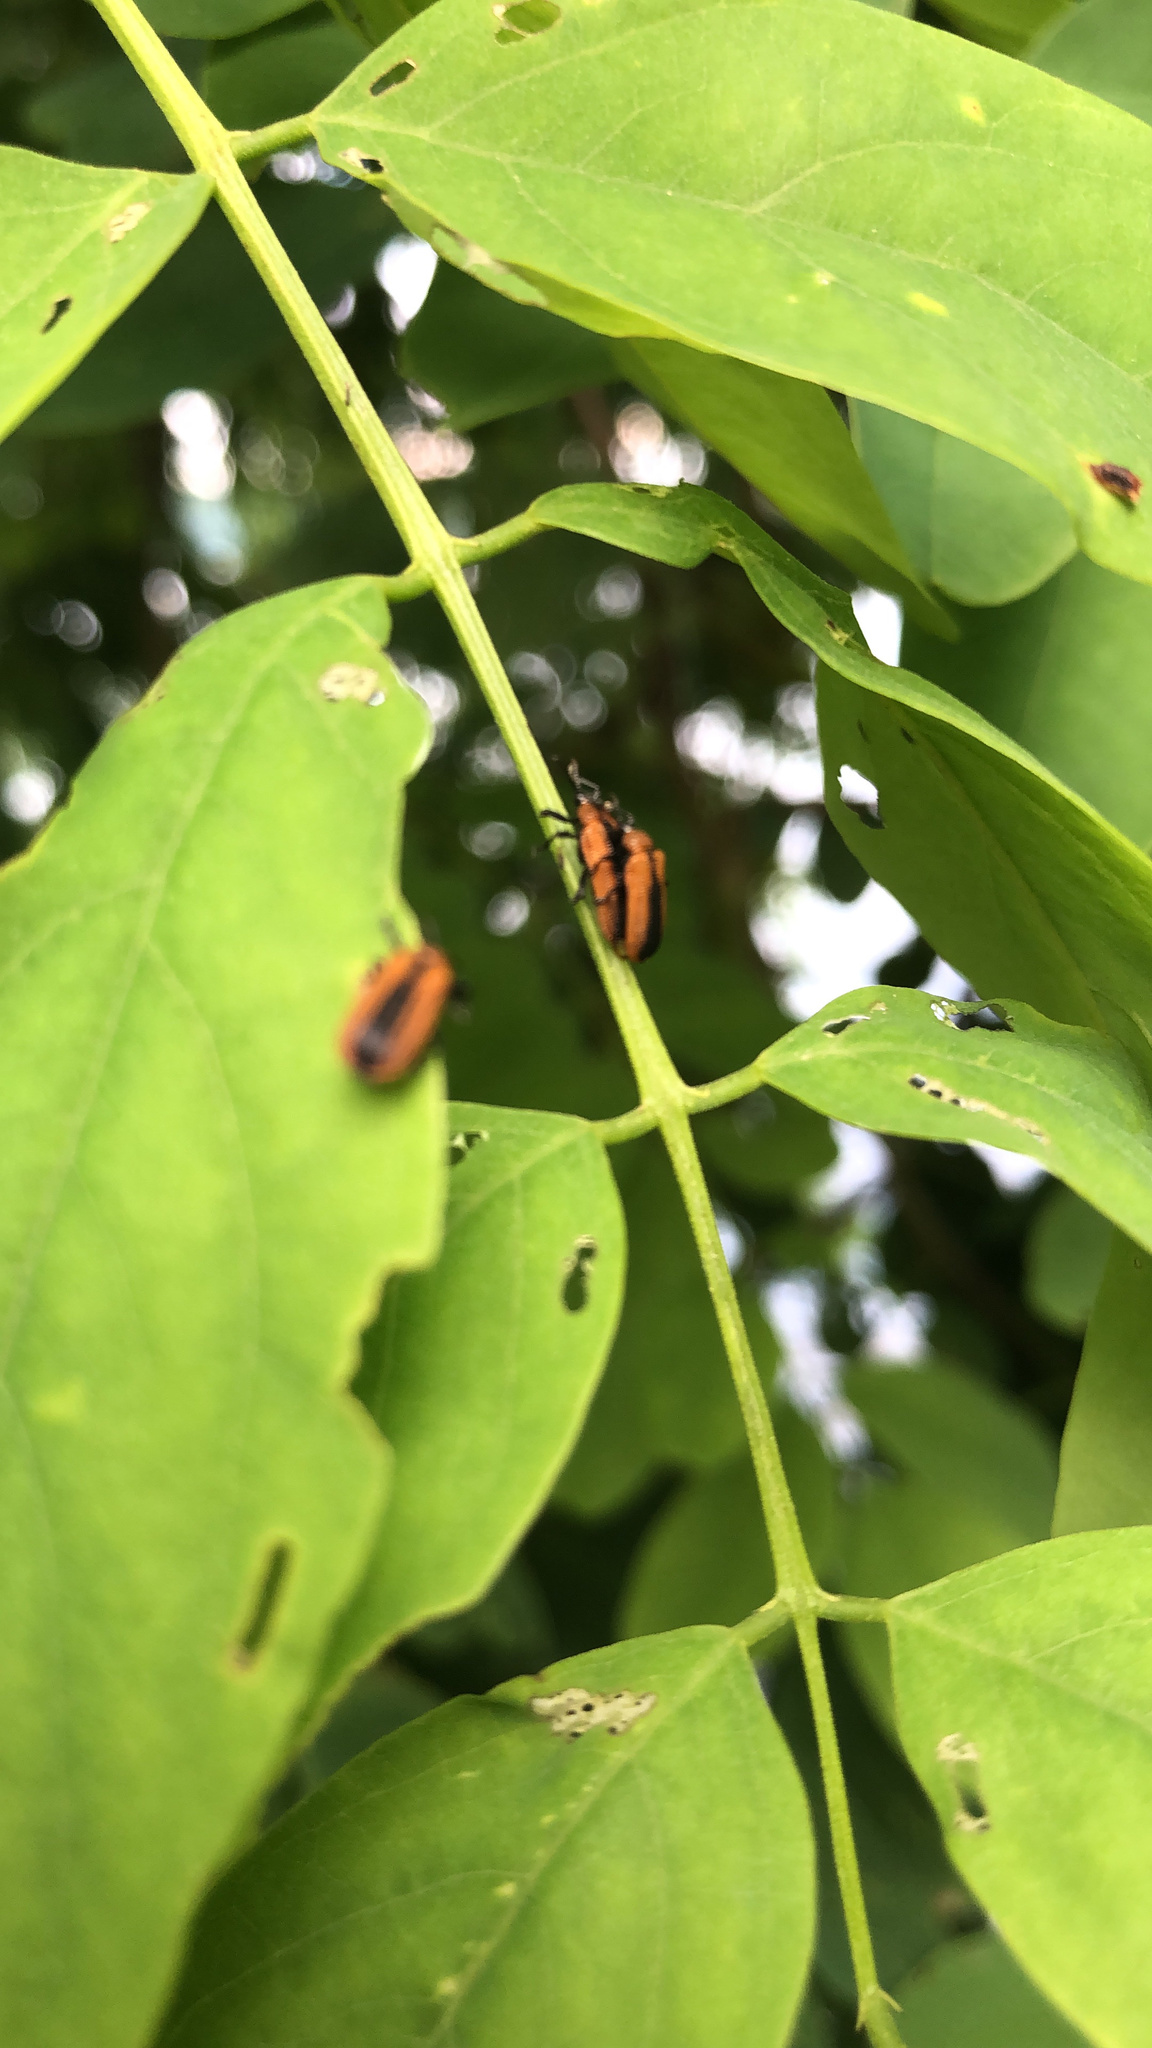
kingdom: Animalia
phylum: Arthropoda
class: Insecta
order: Coleoptera
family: Chrysomelidae
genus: Odontota
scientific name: Odontota dorsalis
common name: Locust leaf-miner beetle
